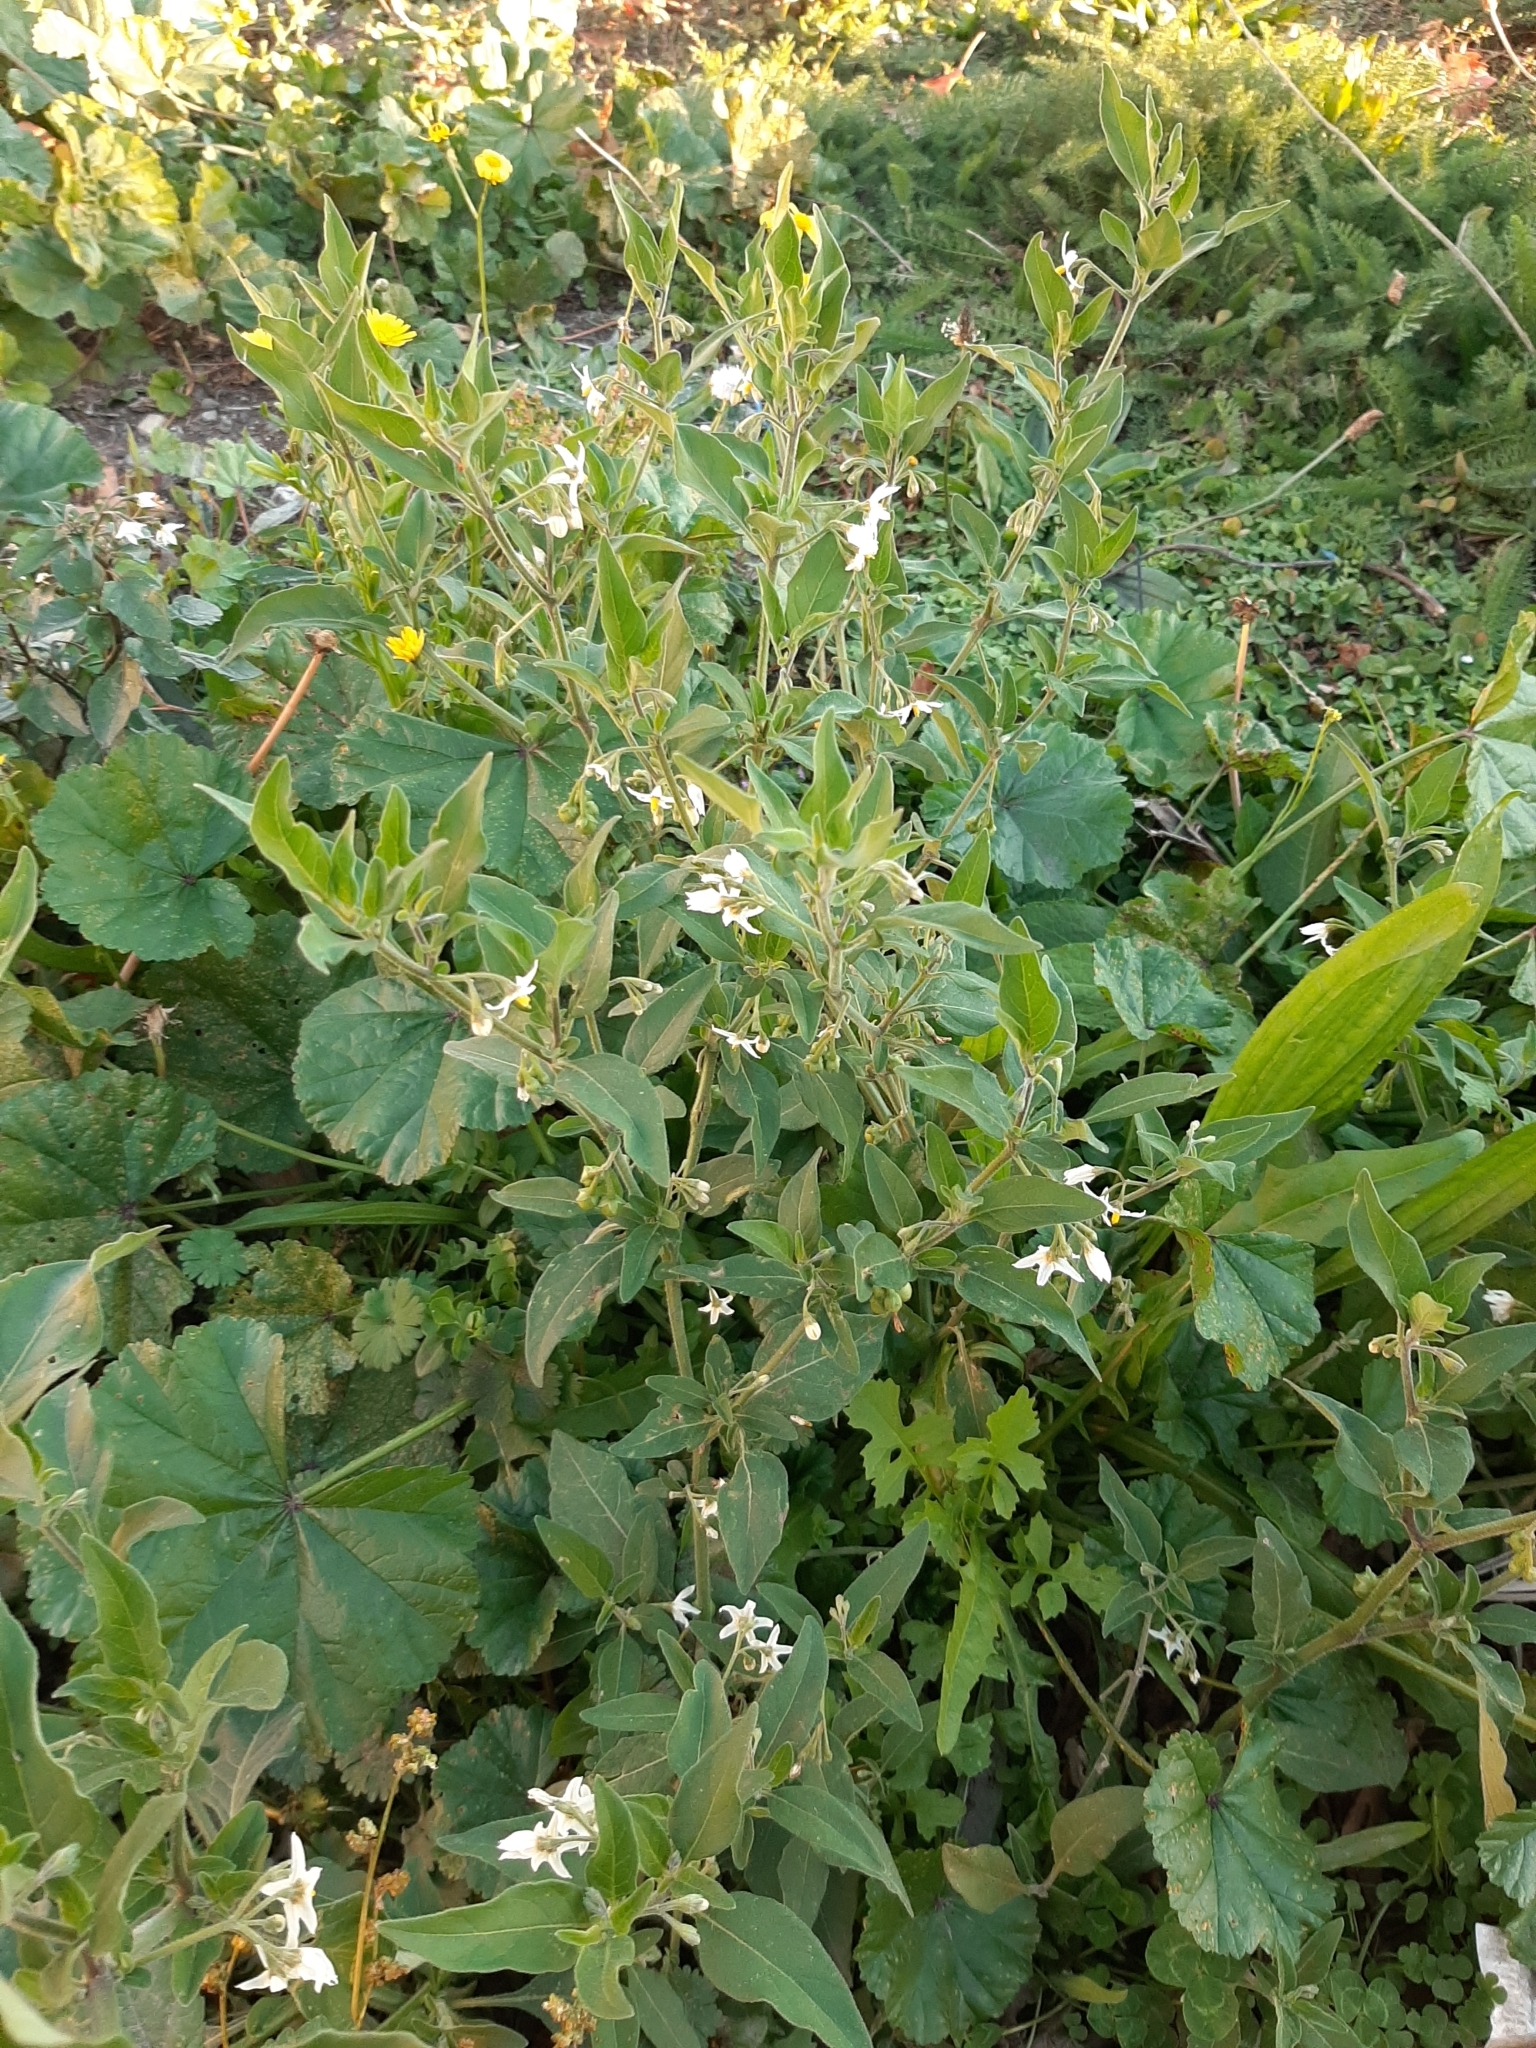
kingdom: Plantae
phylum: Tracheophyta
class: Magnoliopsida
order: Solanales
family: Solanaceae
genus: Solanum
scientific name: Solanum chenopodioides
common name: Tall nightshade
